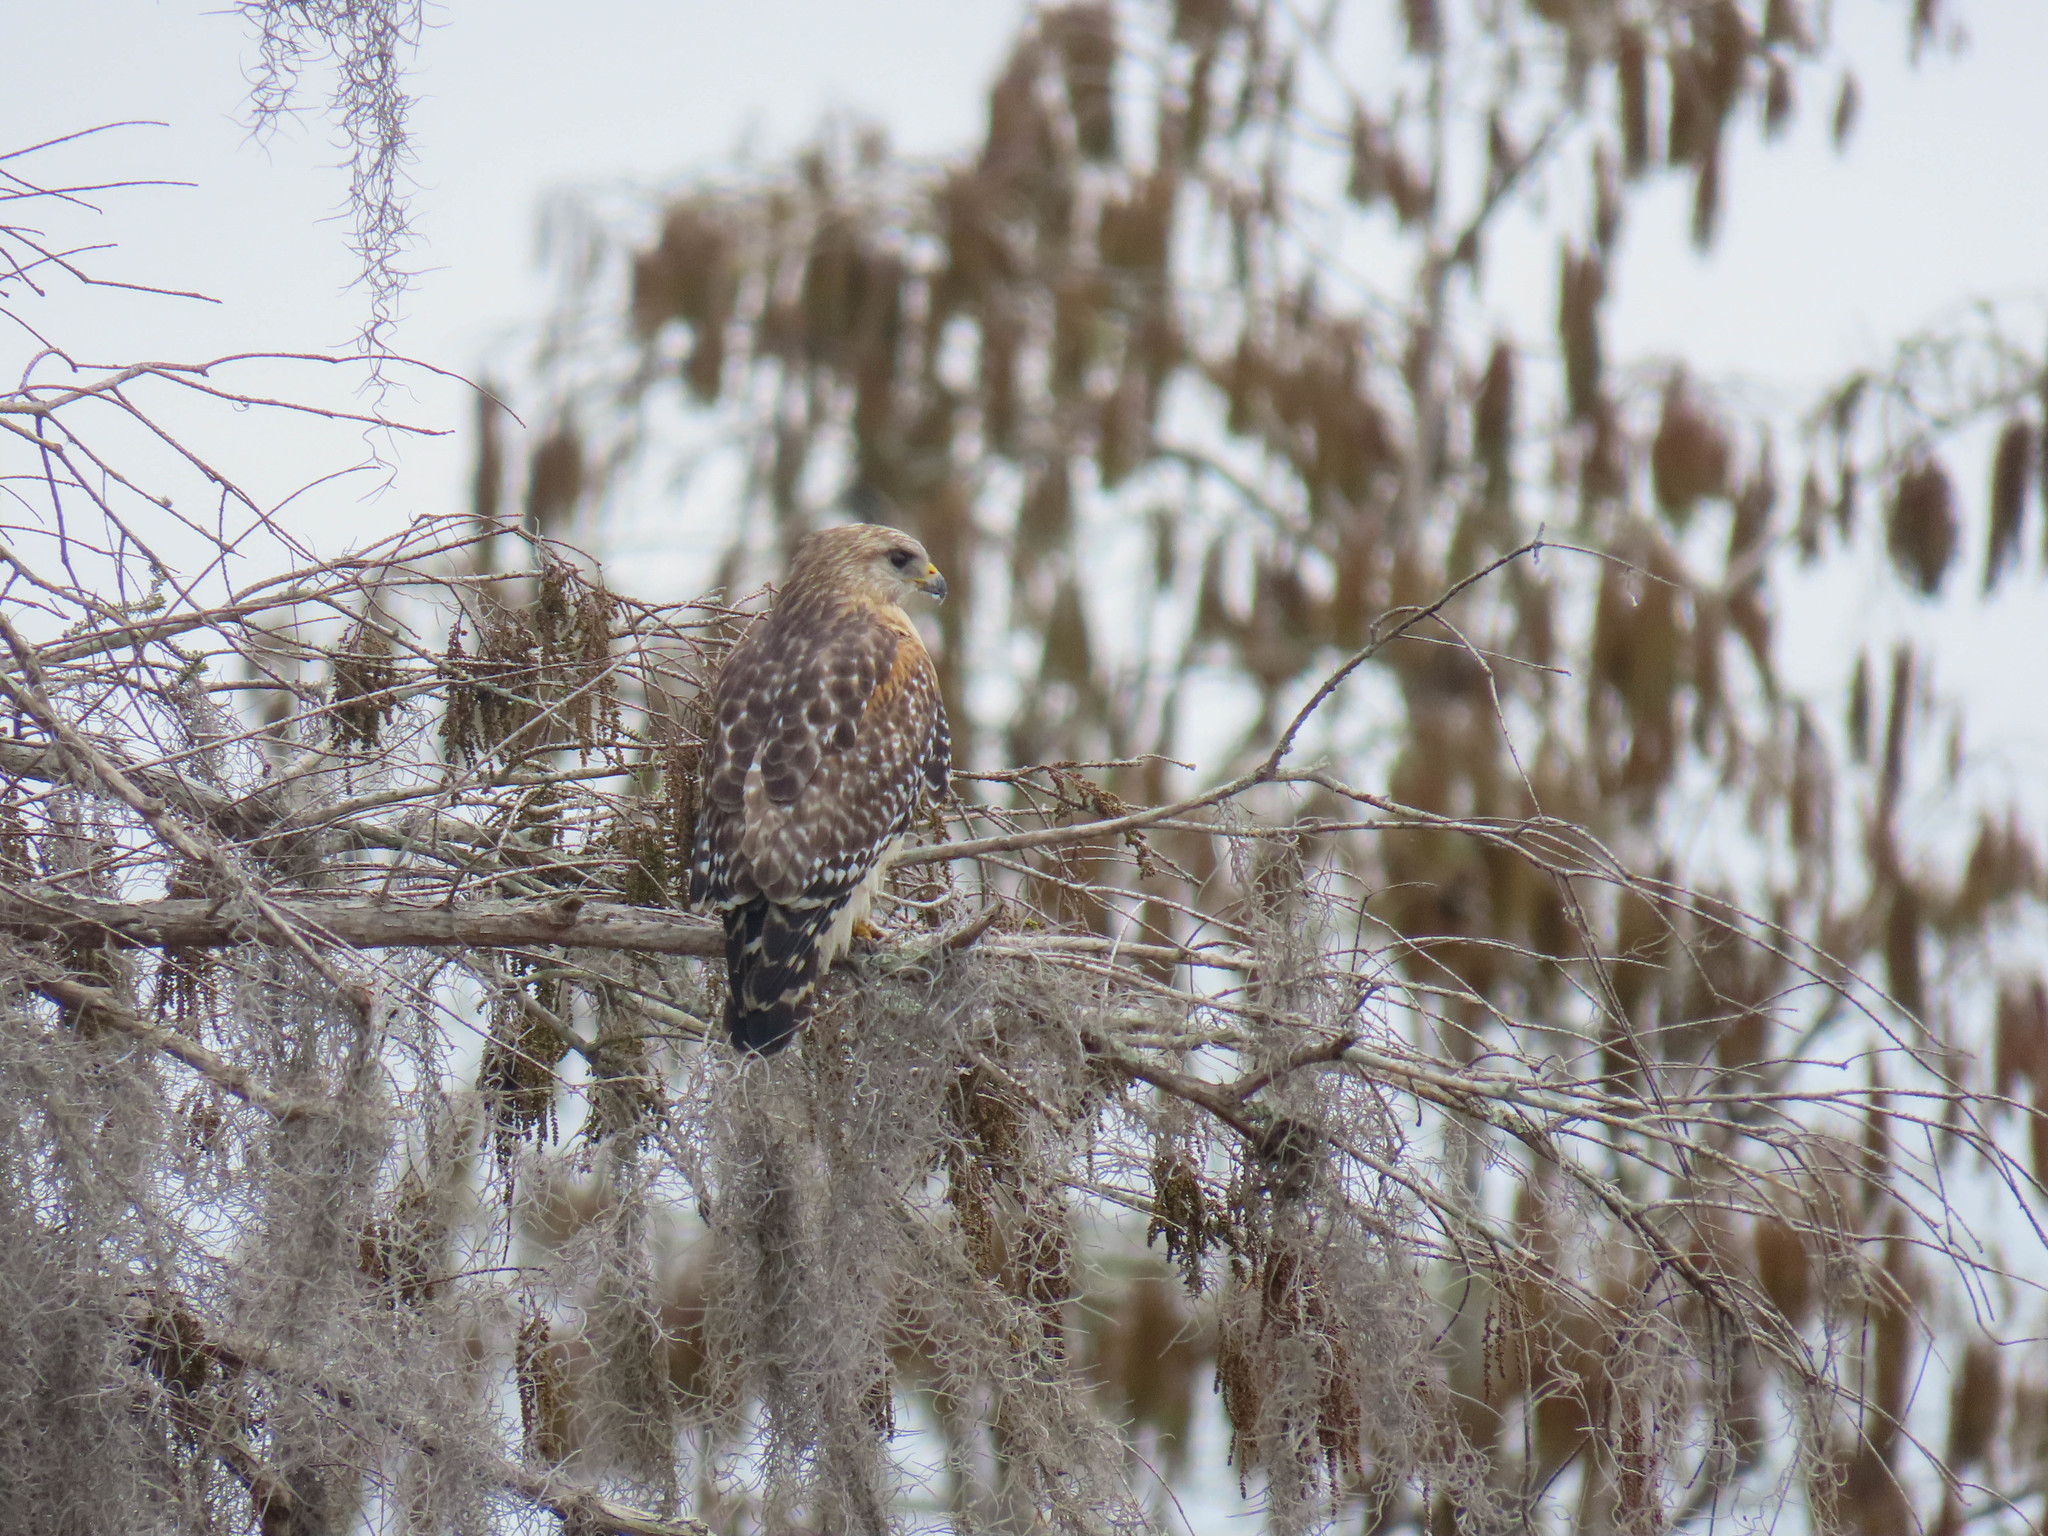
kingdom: Animalia
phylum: Chordata
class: Aves
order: Accipitriformes
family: Accipitridae
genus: Buteo
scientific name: Buteo lineatus
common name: Red-shouldered hawk
